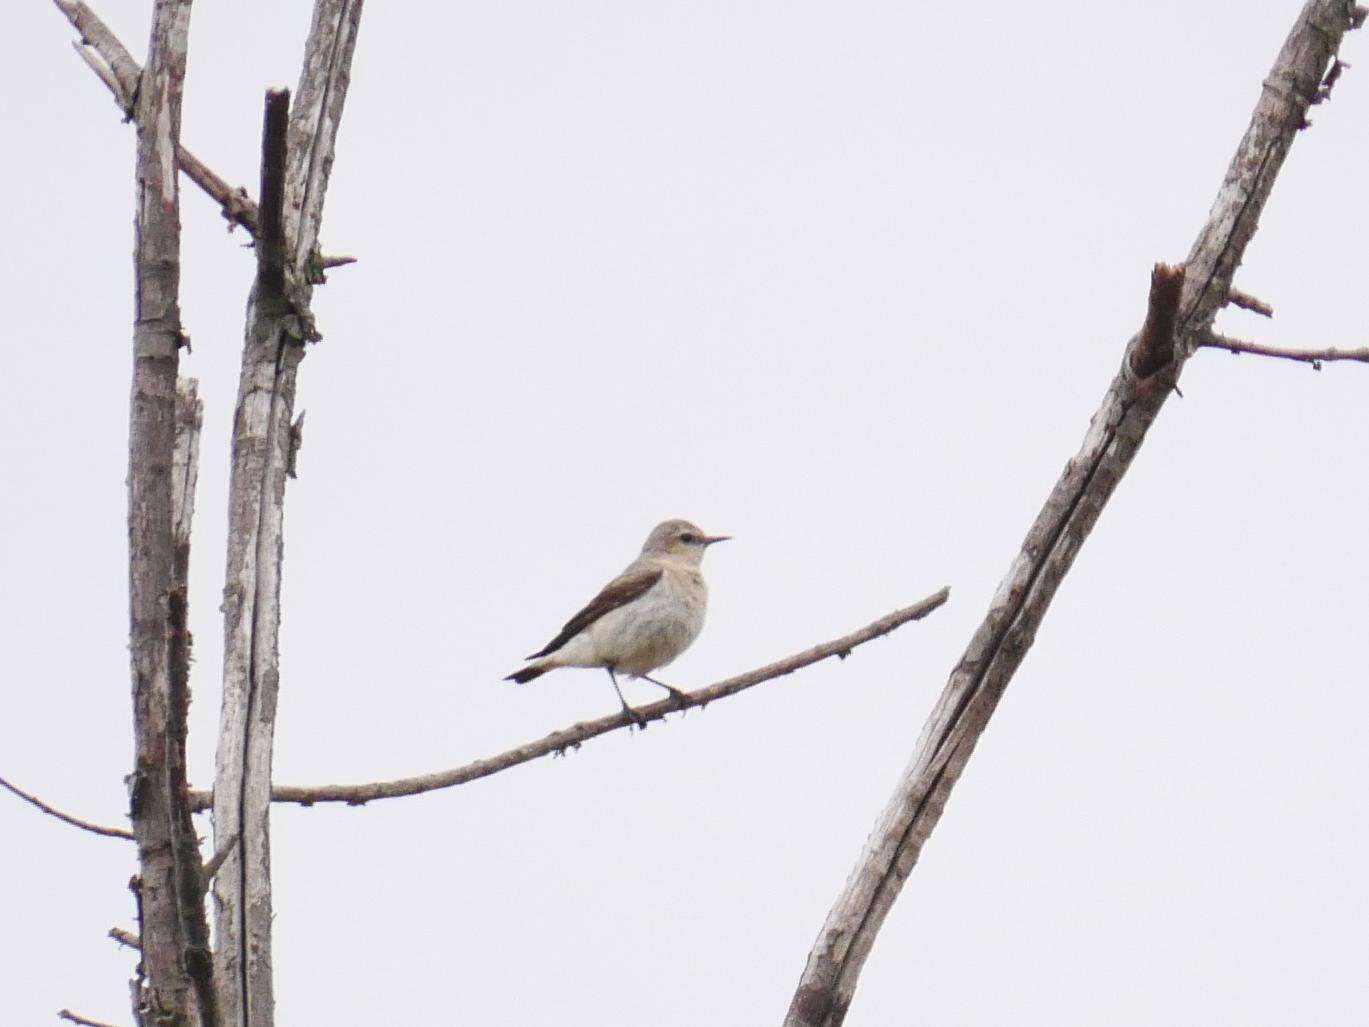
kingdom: Animalia
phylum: Chordata
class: Aves
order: Passeriformes
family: Muscicapidae
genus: Oenanthe
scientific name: Oenanthe oenanthe
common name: Northern wheatear
